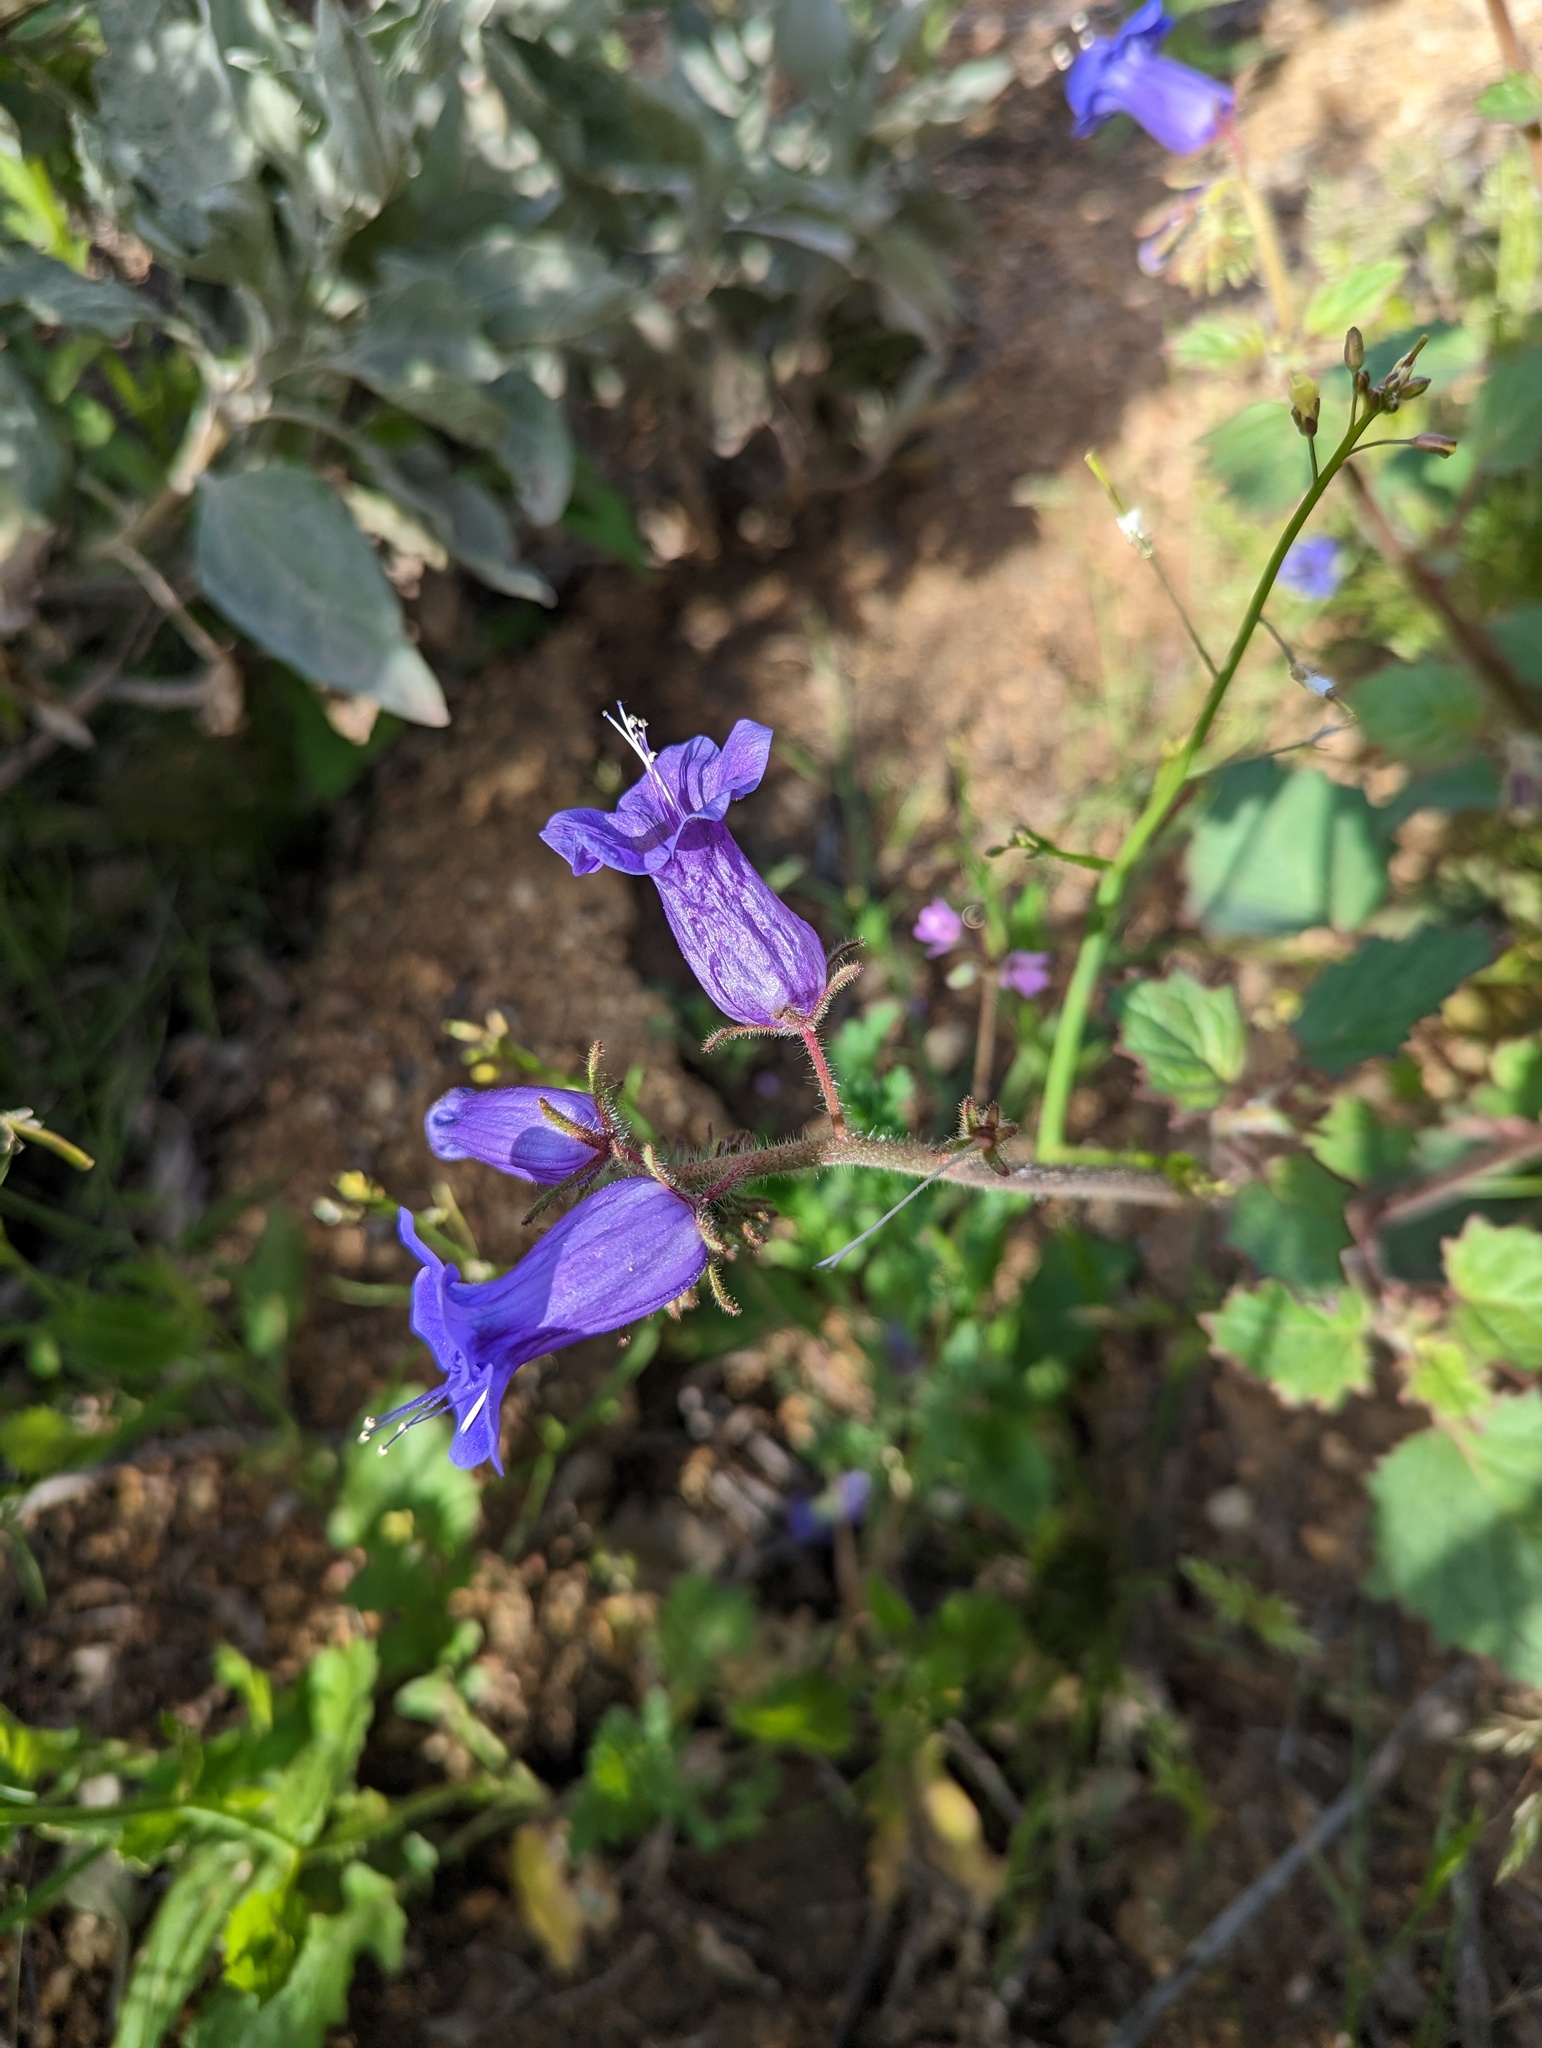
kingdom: Plantae
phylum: Tracheophyta
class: Magnoliopsida
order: Boraginales
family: Hydrophyllaceae
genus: Phacelia
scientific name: Phacelia minor
